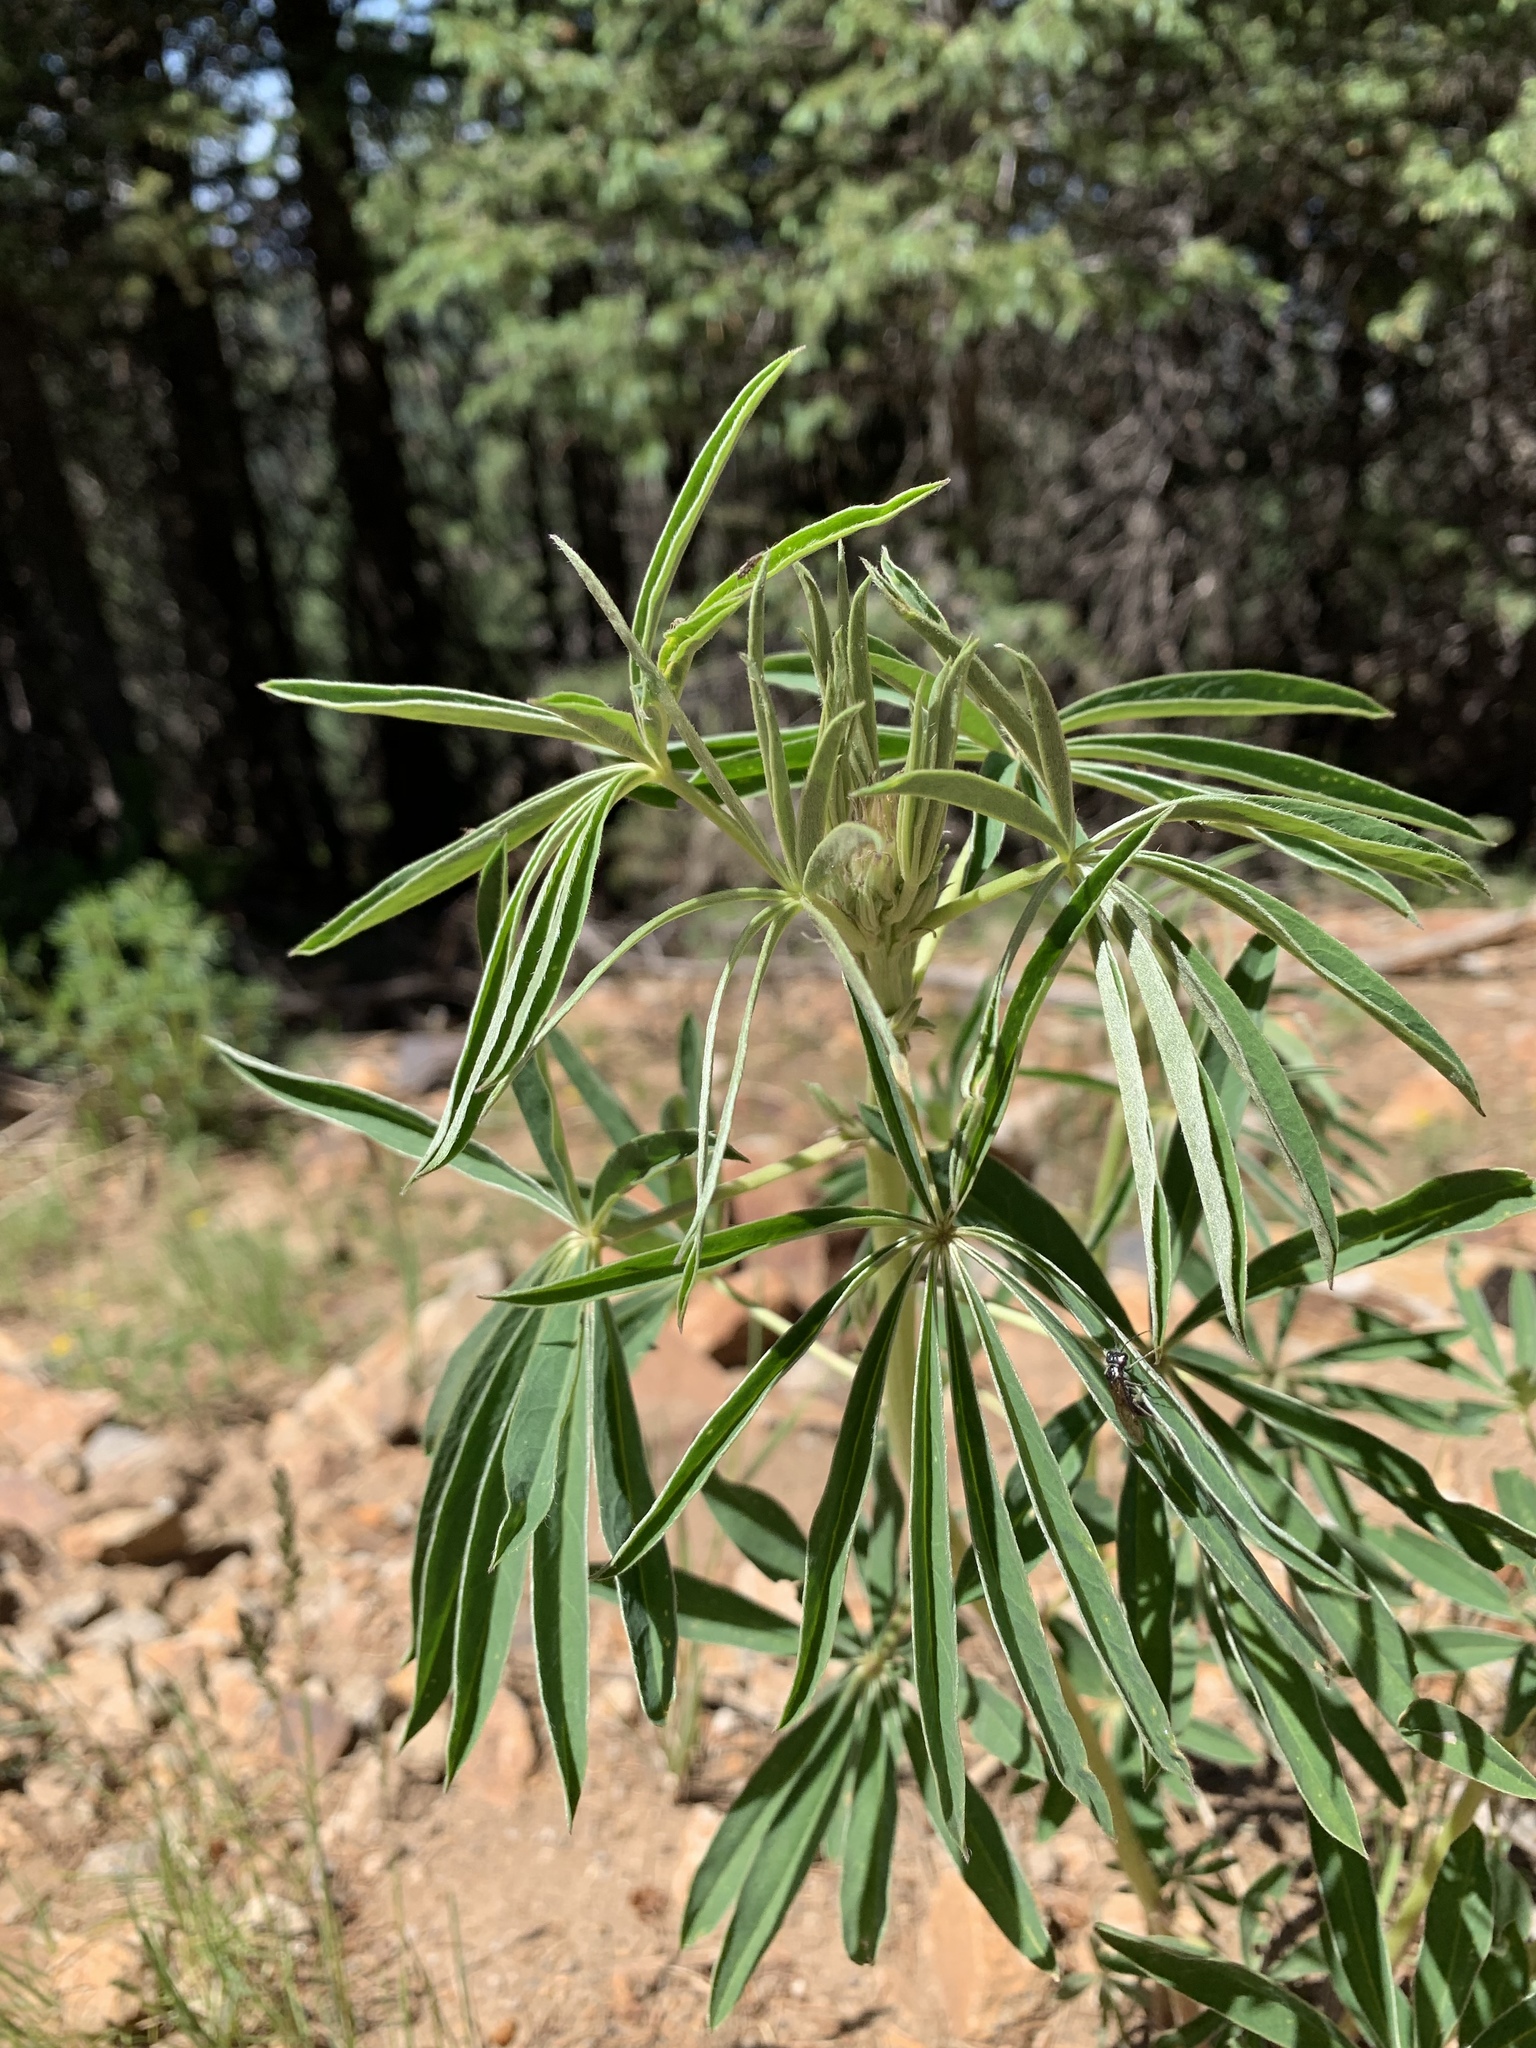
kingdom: Plantae
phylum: Tracheophyta
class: Magnoliopsida
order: Fabales
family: Fabaceae
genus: Lupinus
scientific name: Lupinus sierrae-blancae
